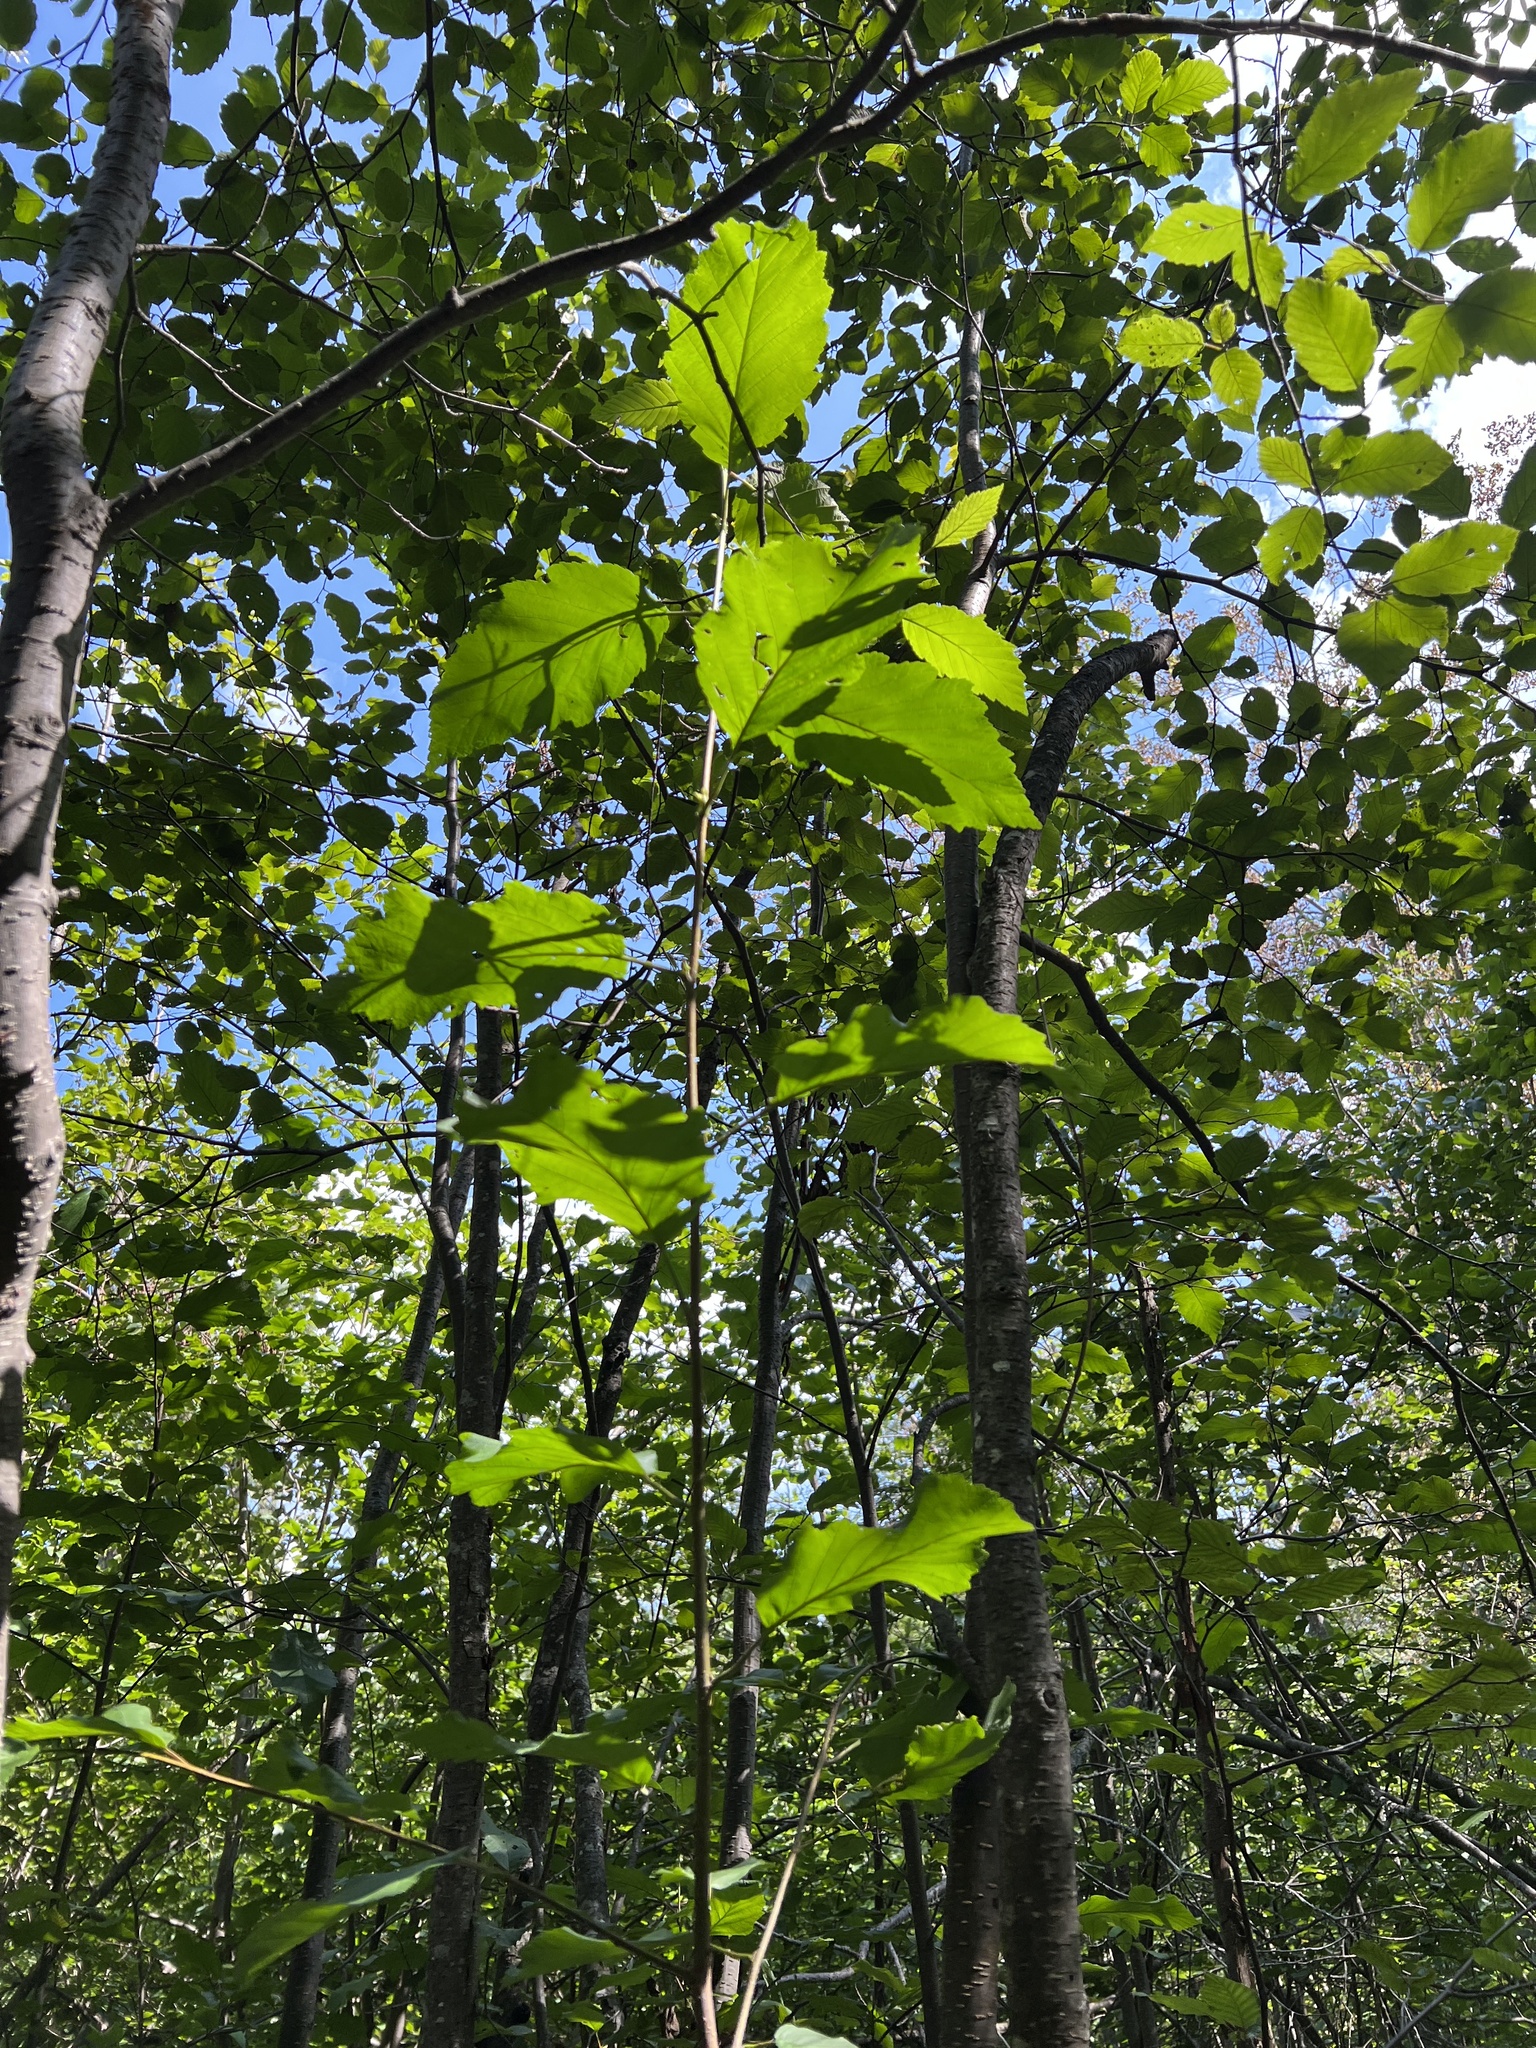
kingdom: Plantae
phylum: Tracheophyta
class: Magnoliopsida
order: Fagales
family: Betulaceae
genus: Alnus
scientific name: Alnus incana
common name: Grey alder
